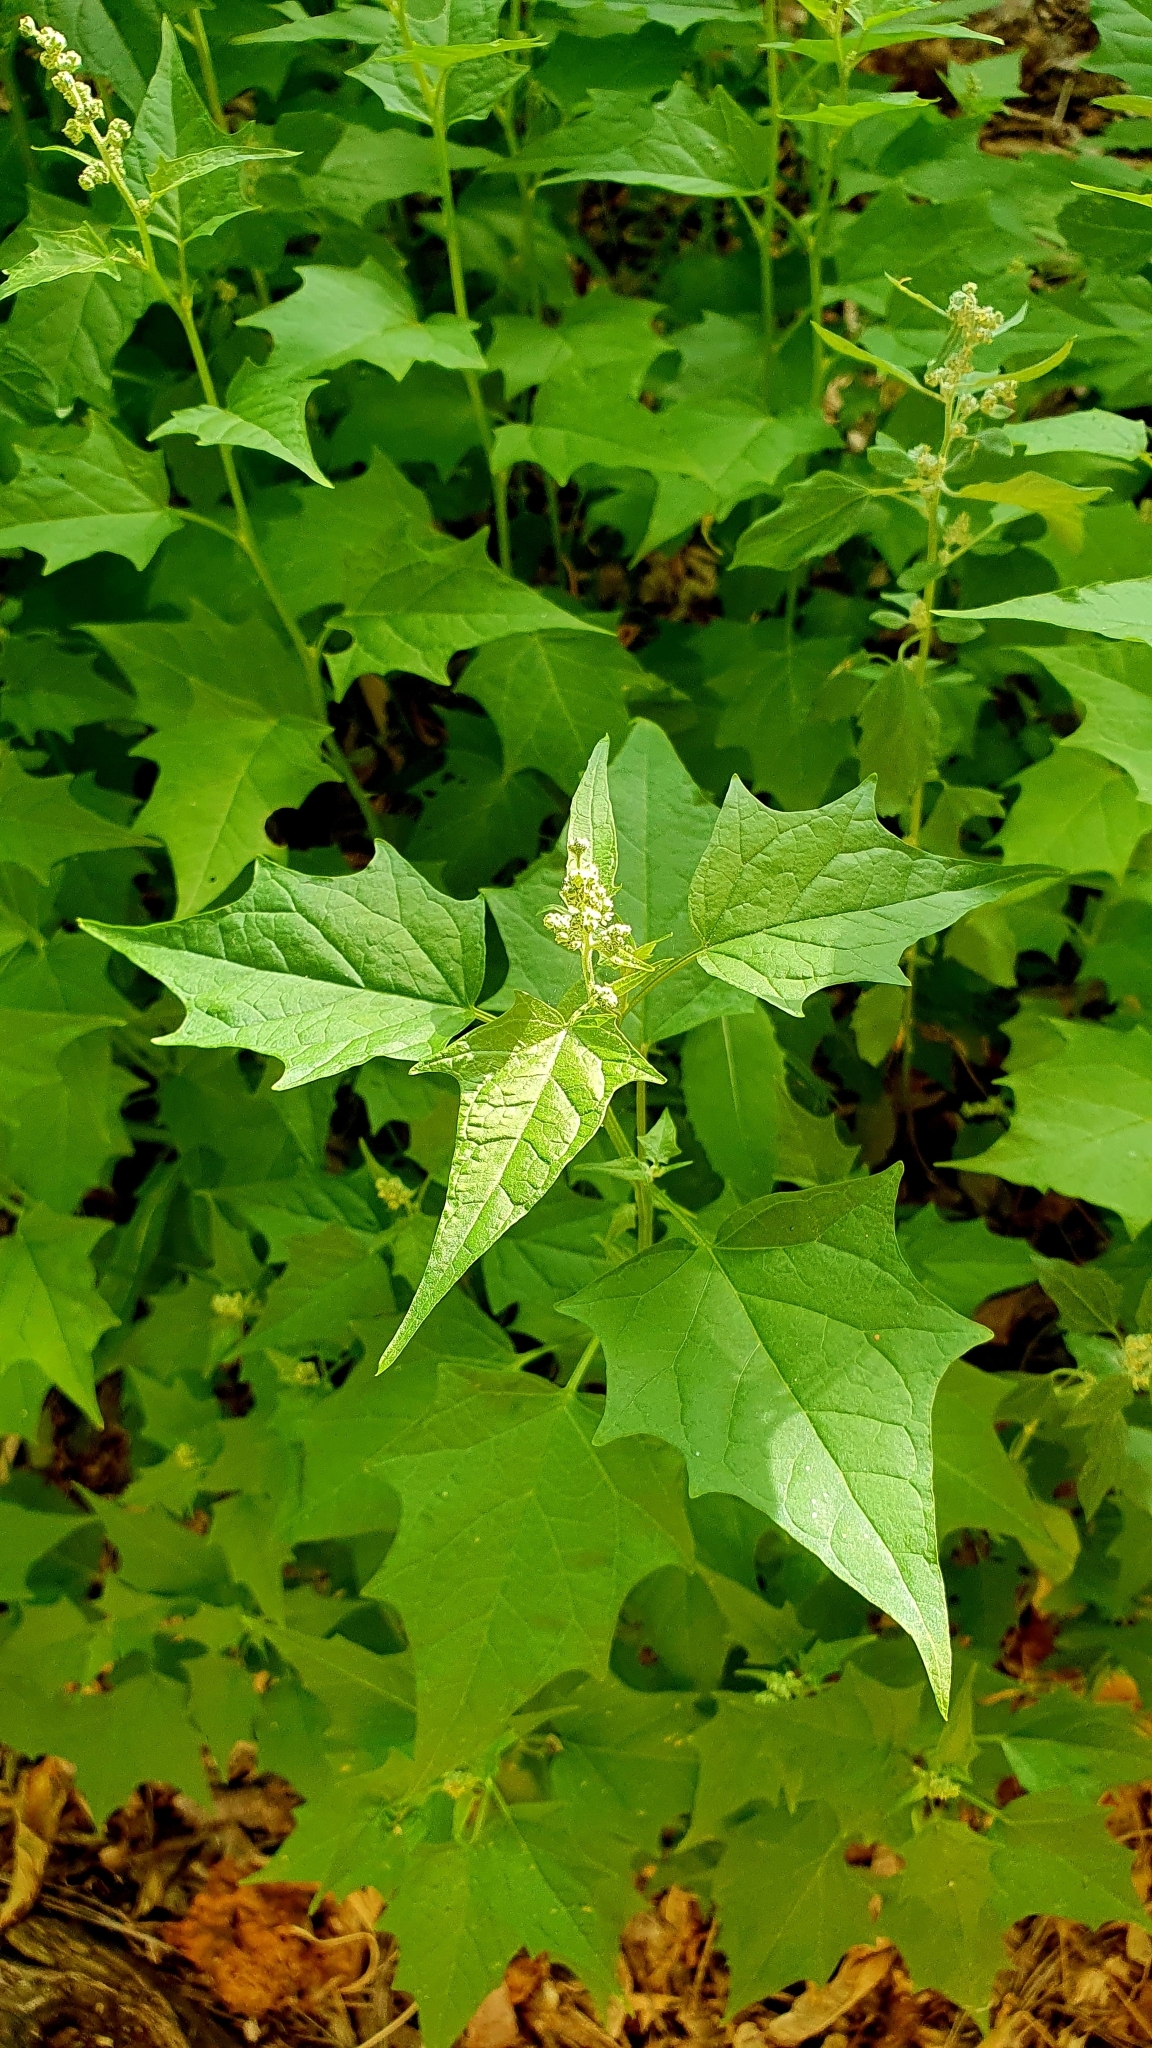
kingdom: Plantae
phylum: Tracheophyta
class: Magnoliopsida
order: Caryophyllales
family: Amaranthaceae
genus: Chenopodiastrum
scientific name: Chenopodiastrum hybridum
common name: Mapleleaf goosefoot
